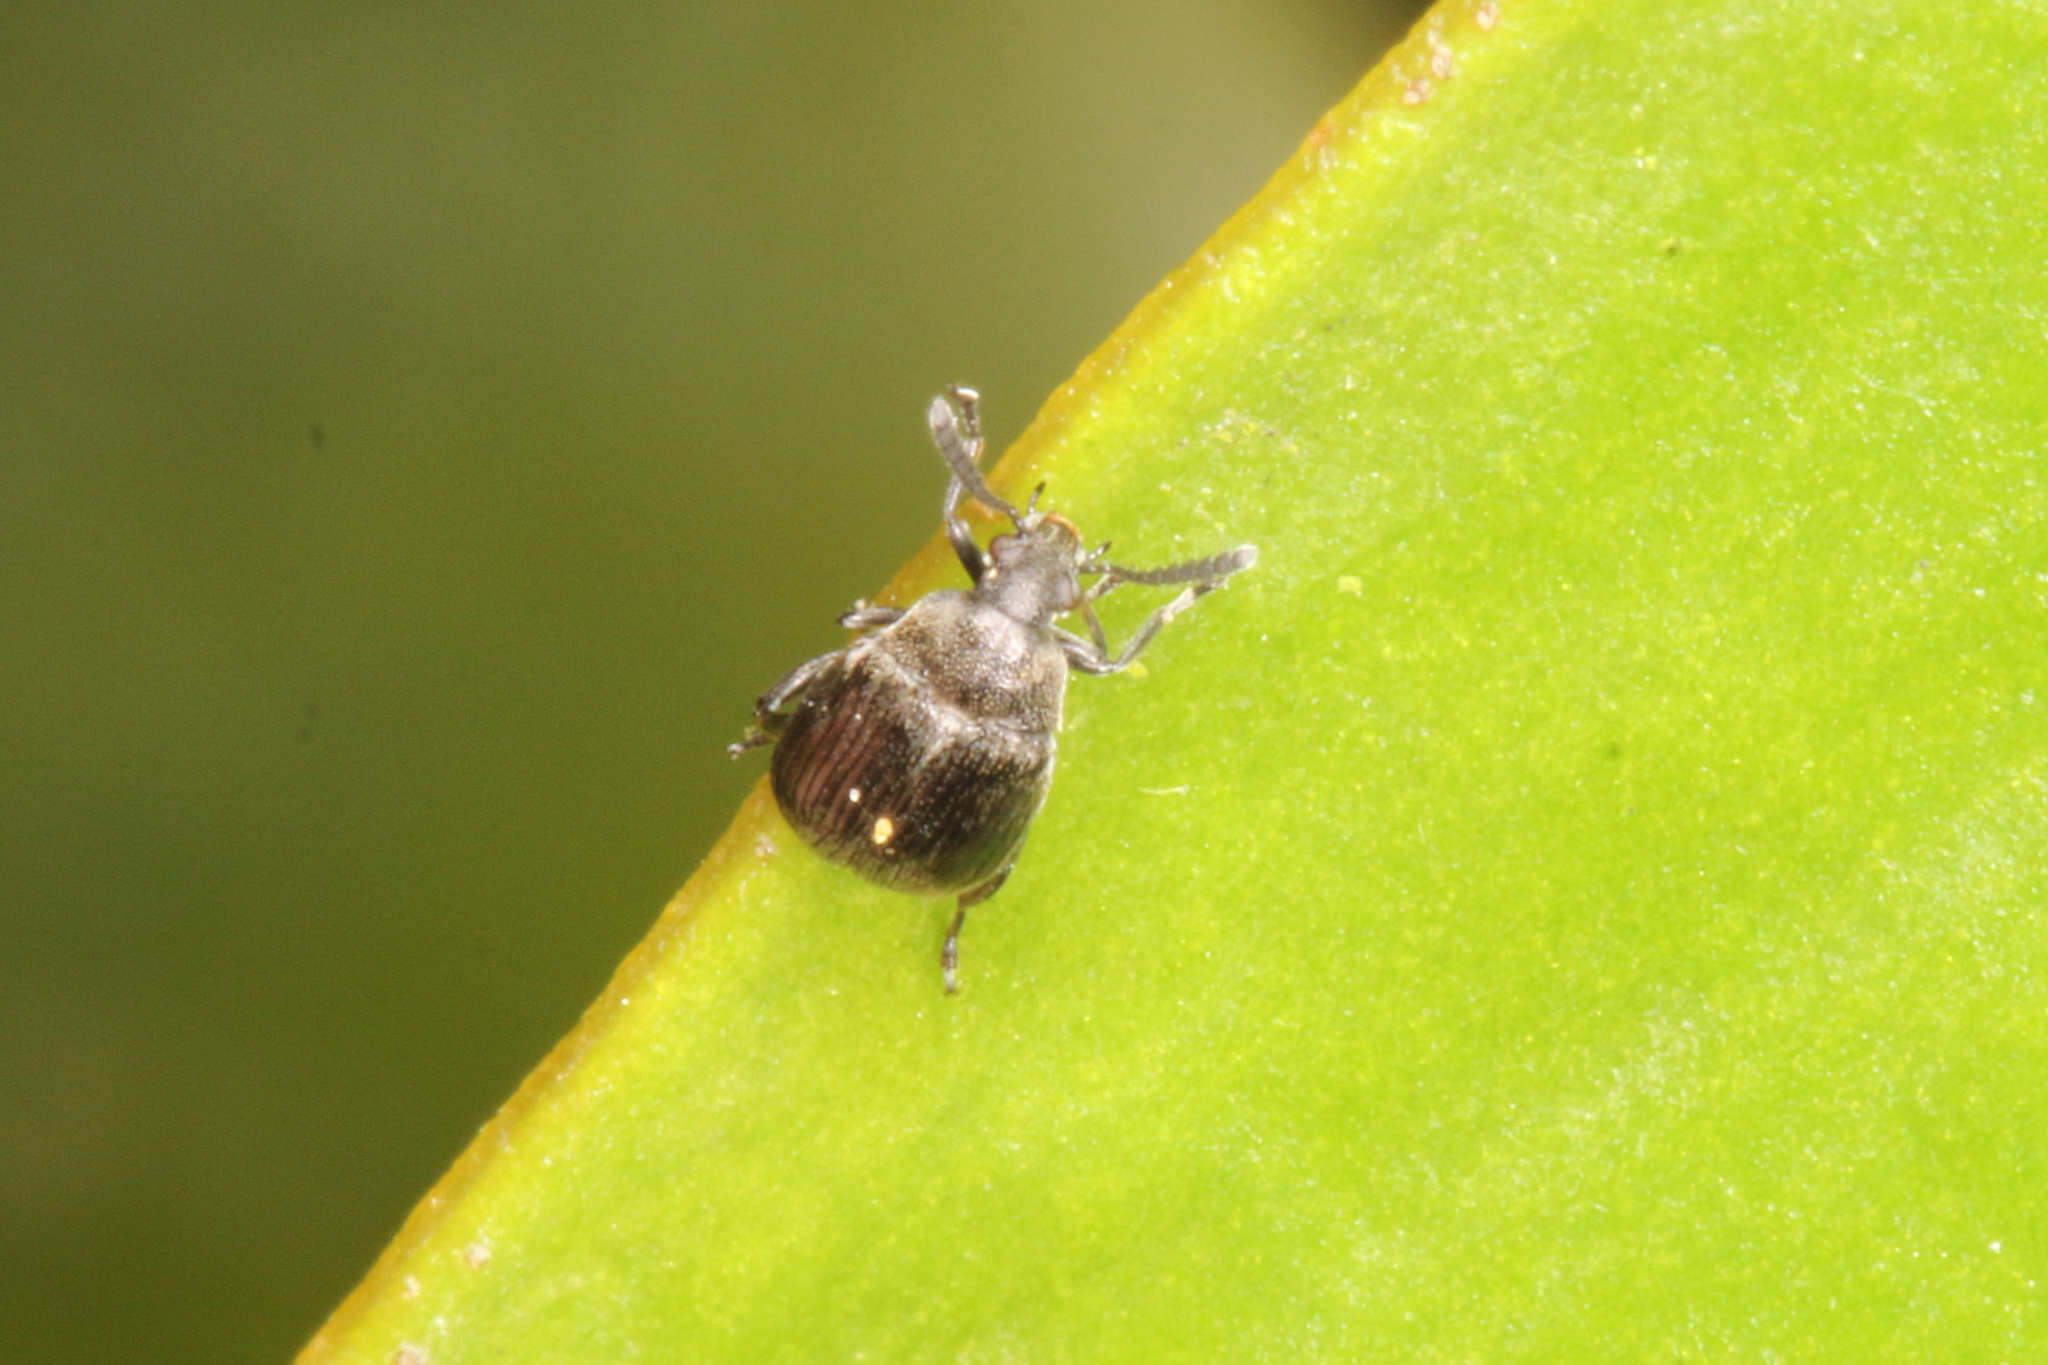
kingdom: Animalia
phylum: Arthropoda
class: Insecta
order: Coleoptera
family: Chrysomelidae
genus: Bruchidius
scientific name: Bruchidius villosus
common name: Scotch broom bruchid
